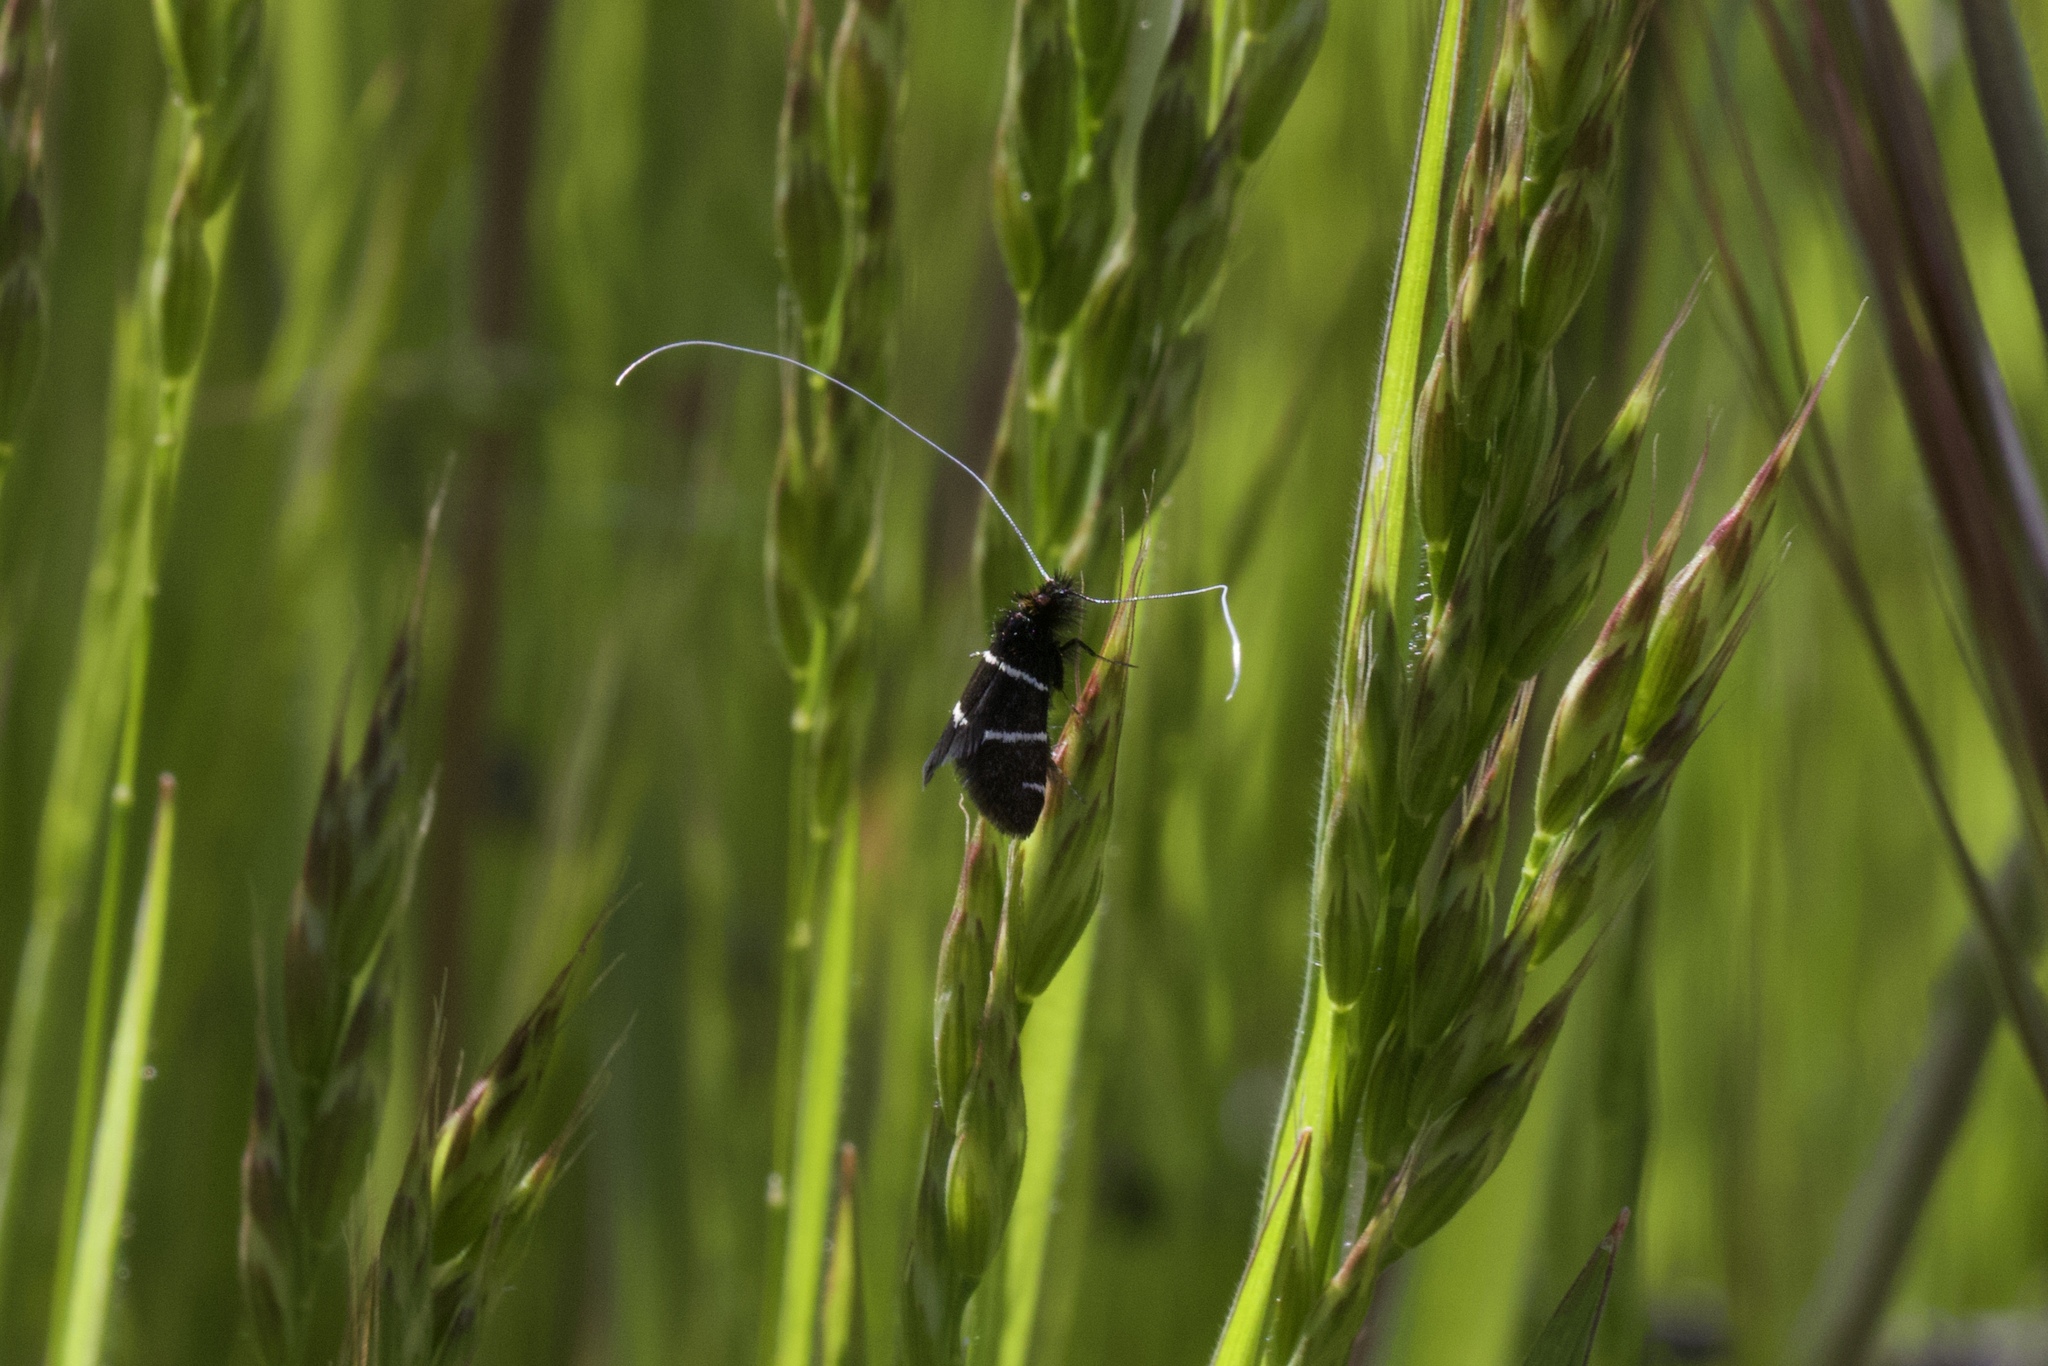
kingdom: Animalia
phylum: Arthropoda
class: Insecta
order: Lepidoptera
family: Adelidae
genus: Adela
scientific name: Adela trigrapha
